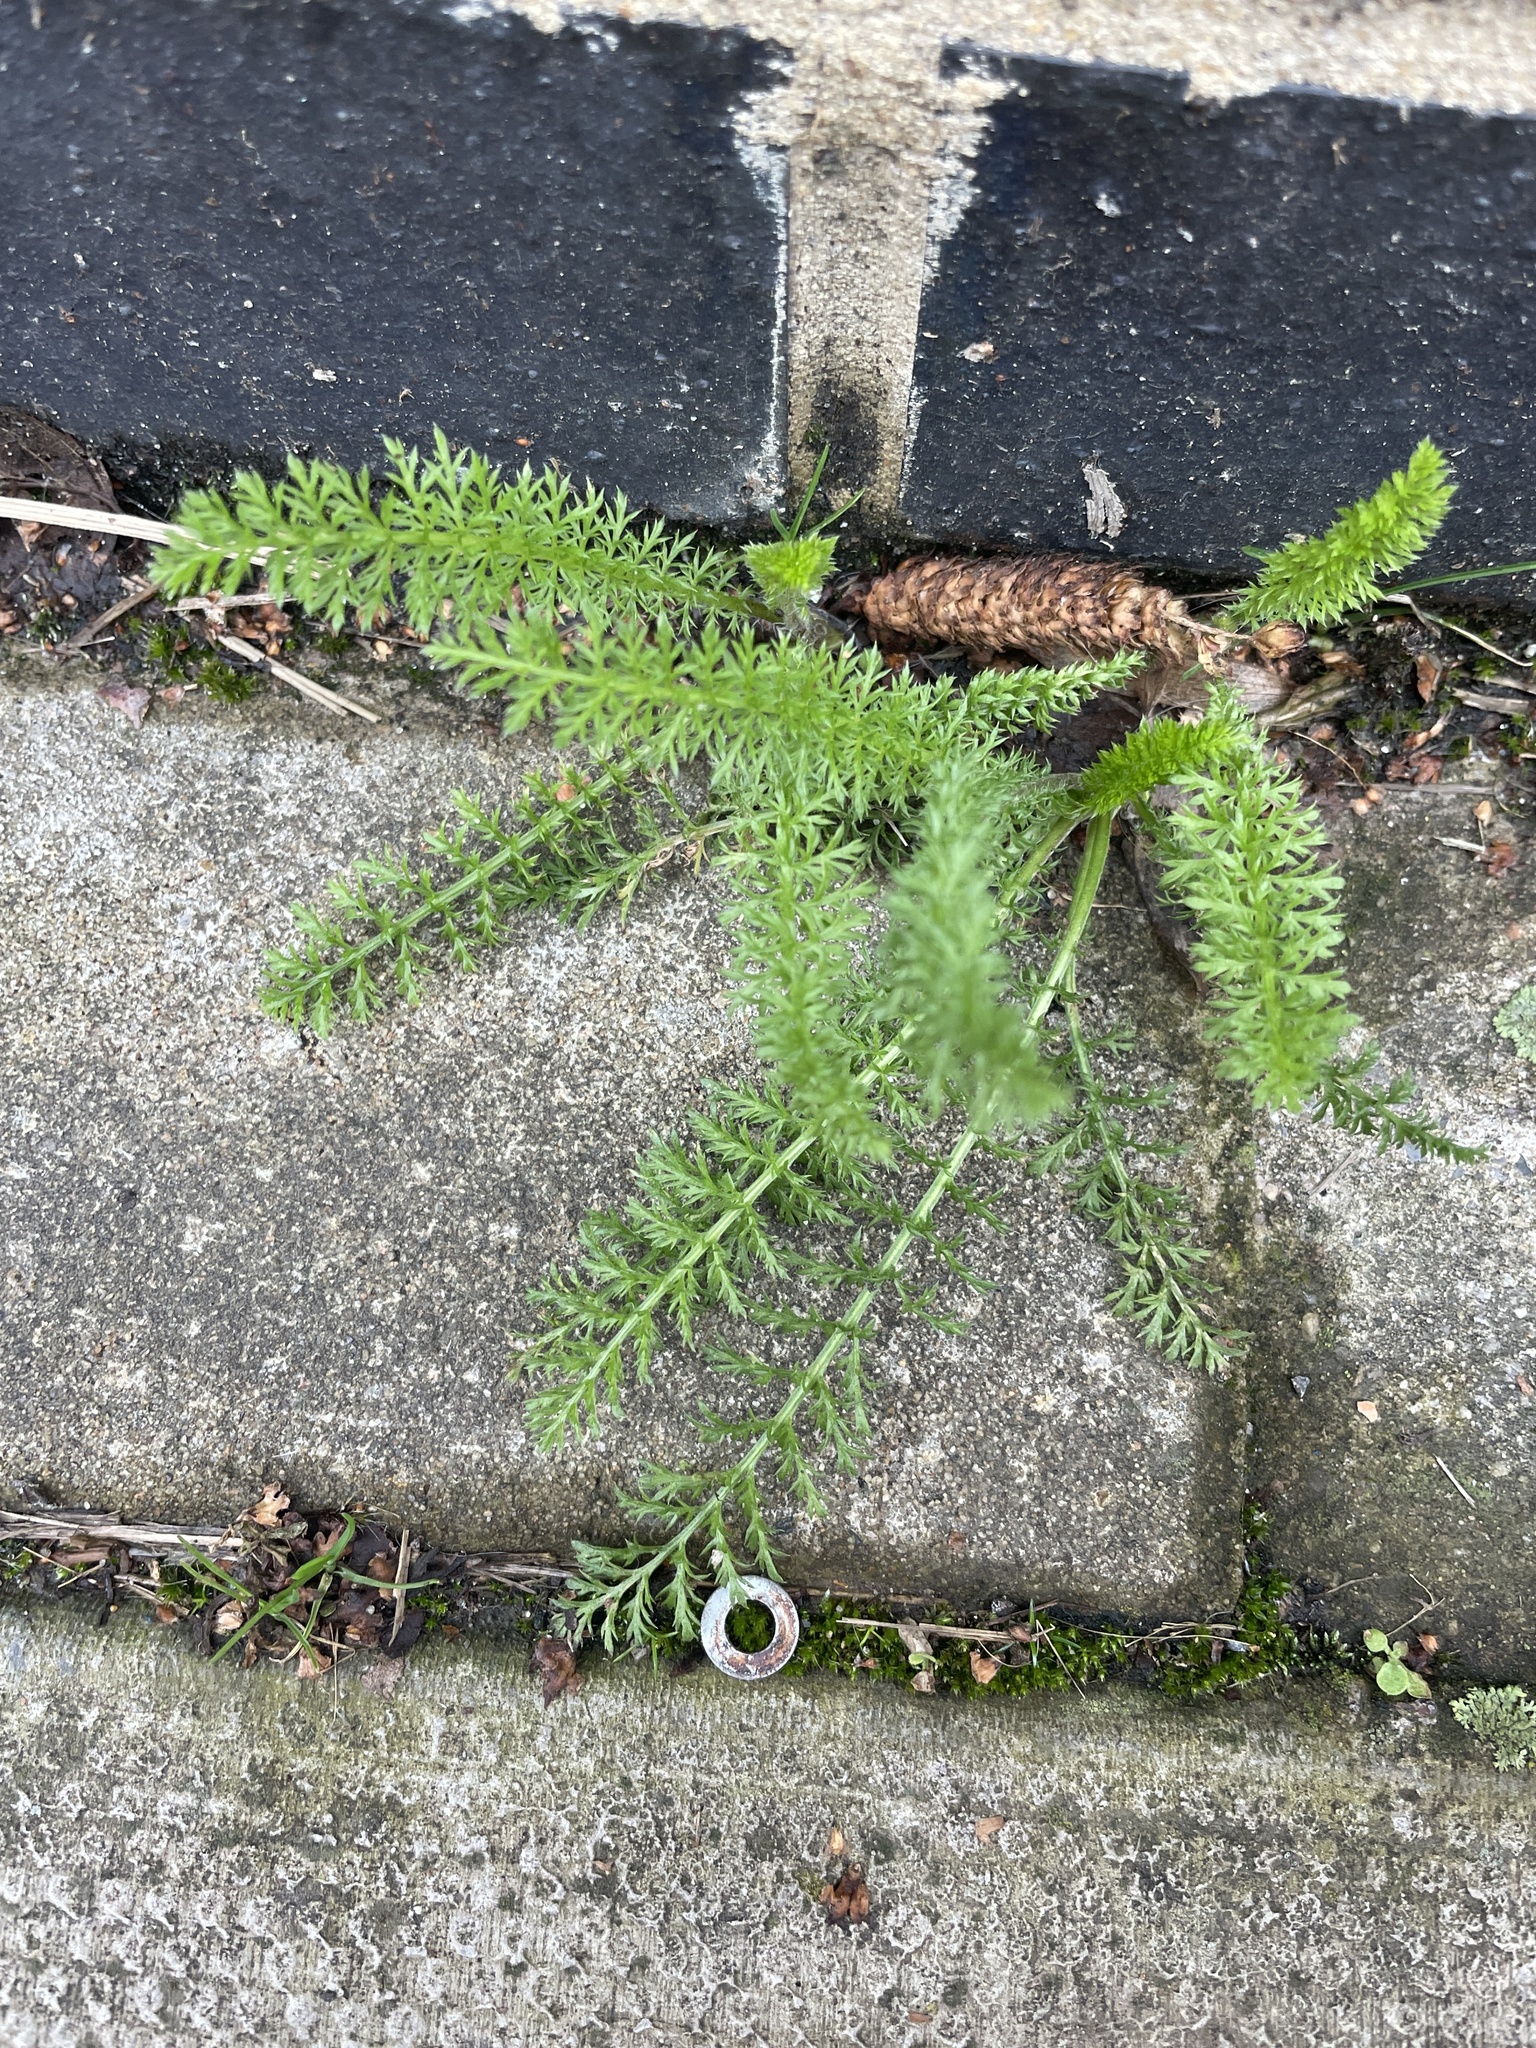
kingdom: Plantae
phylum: Tracheophyta
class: Magnoliopsida
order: Asterales
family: Asteraceae
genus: Achillea
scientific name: Achillea millefolium
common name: Yarrow
